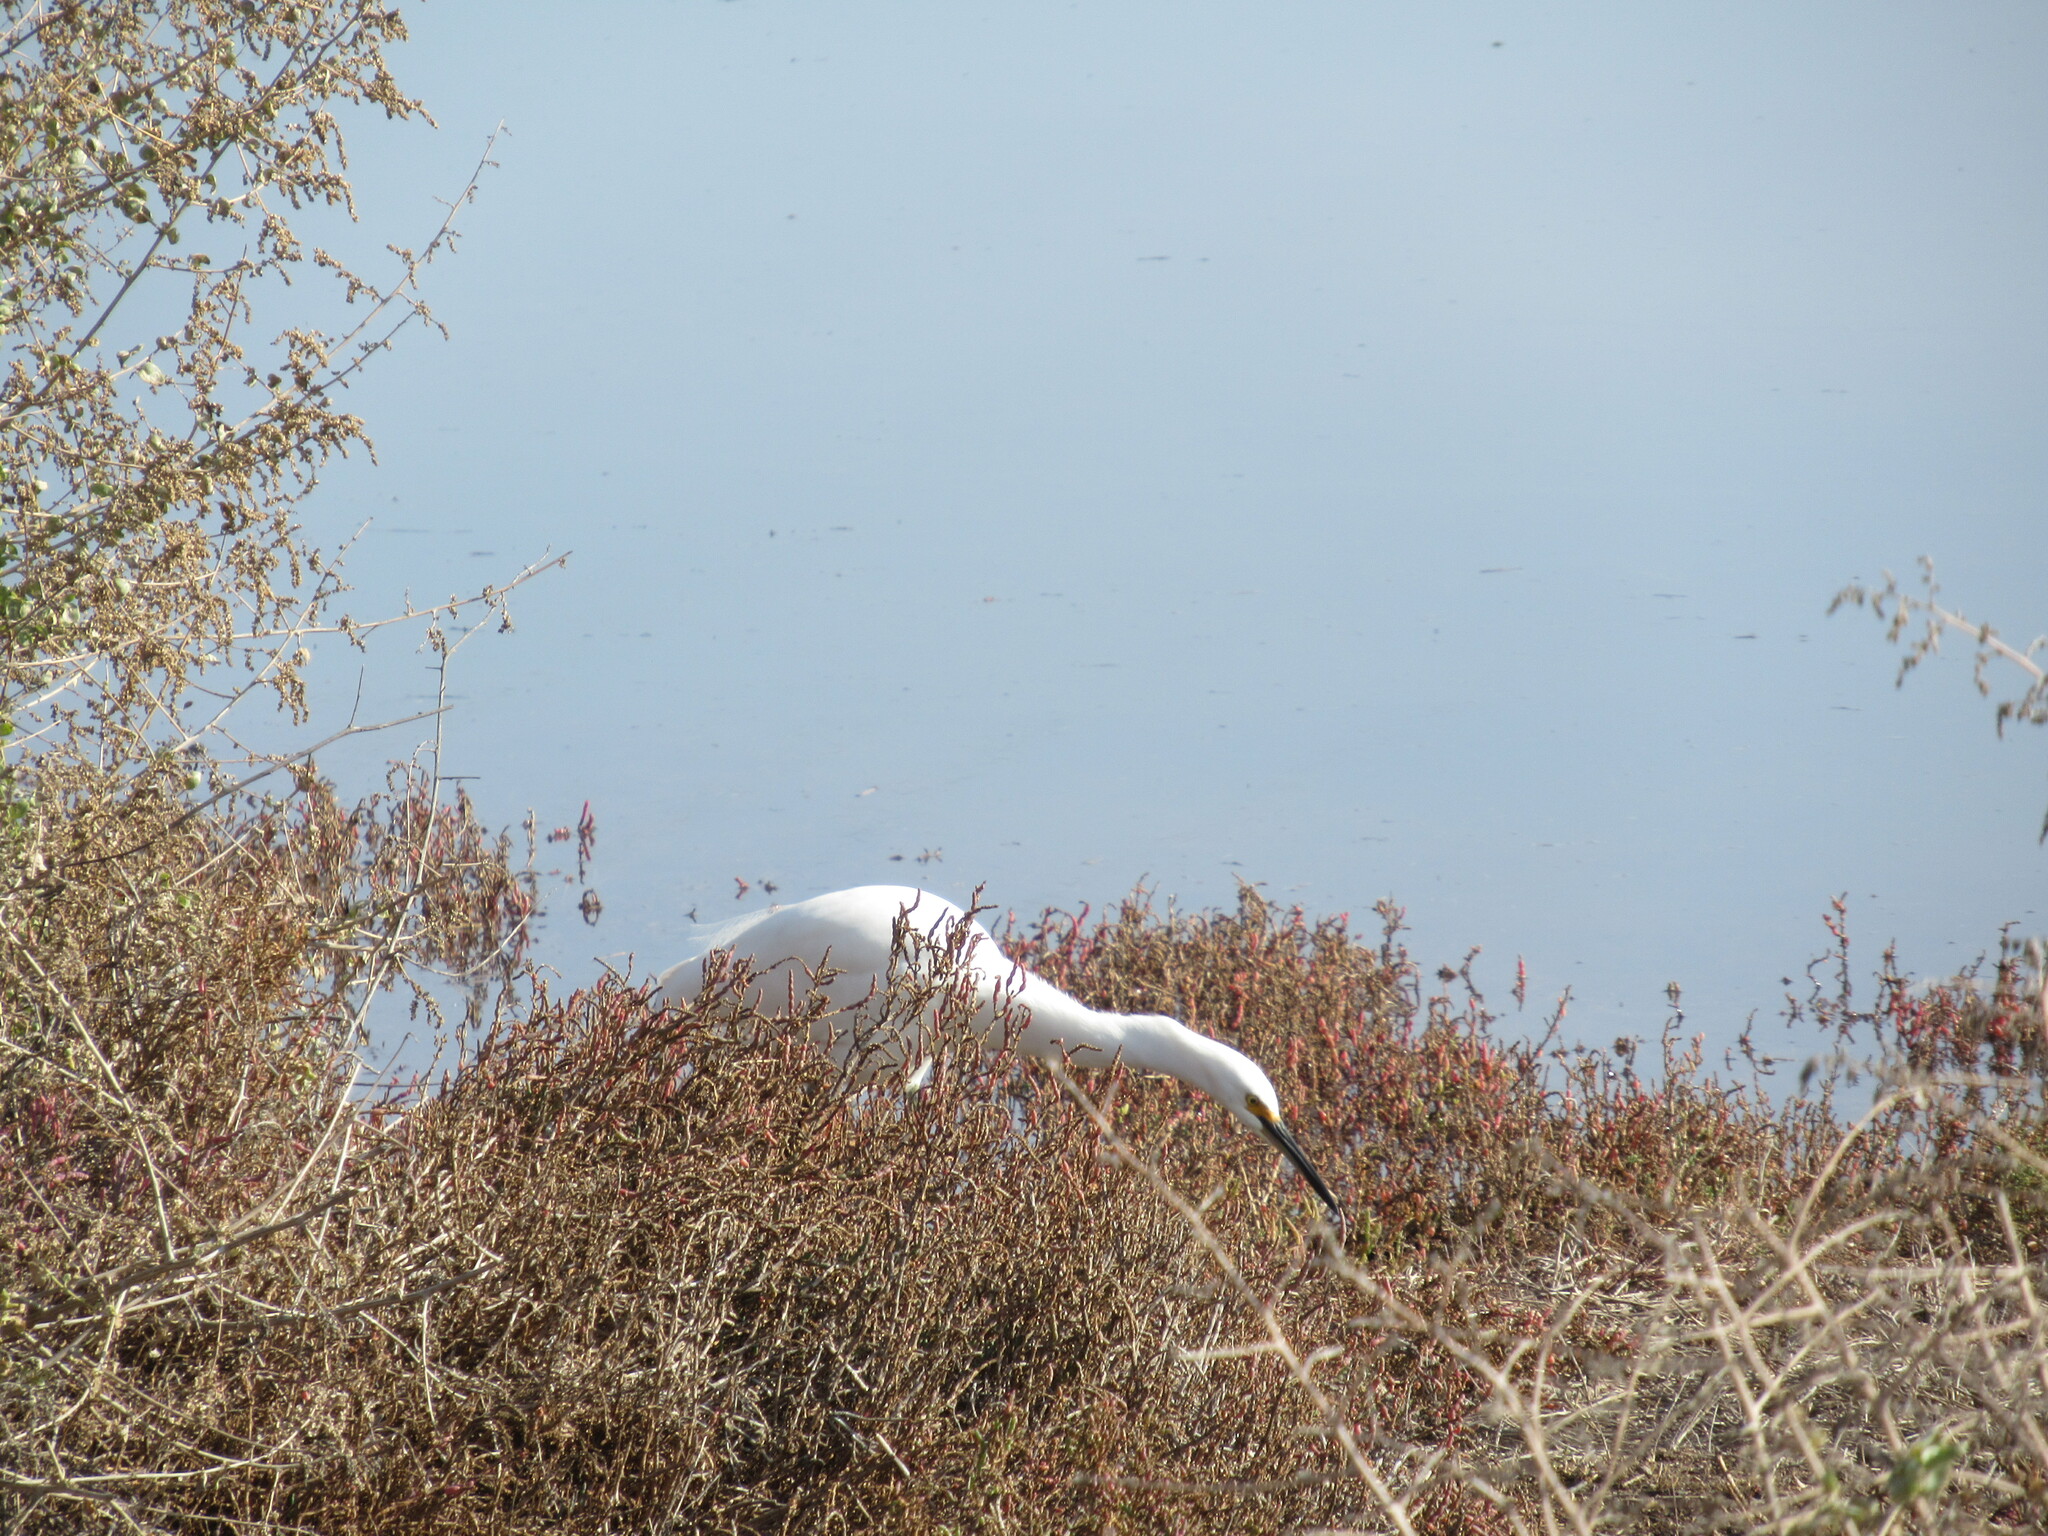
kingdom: Animalia
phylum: Chordata
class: Aves
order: Pelecaniformes
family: Ardeidae
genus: Egretta
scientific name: Egretta thula
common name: Snowy egret
